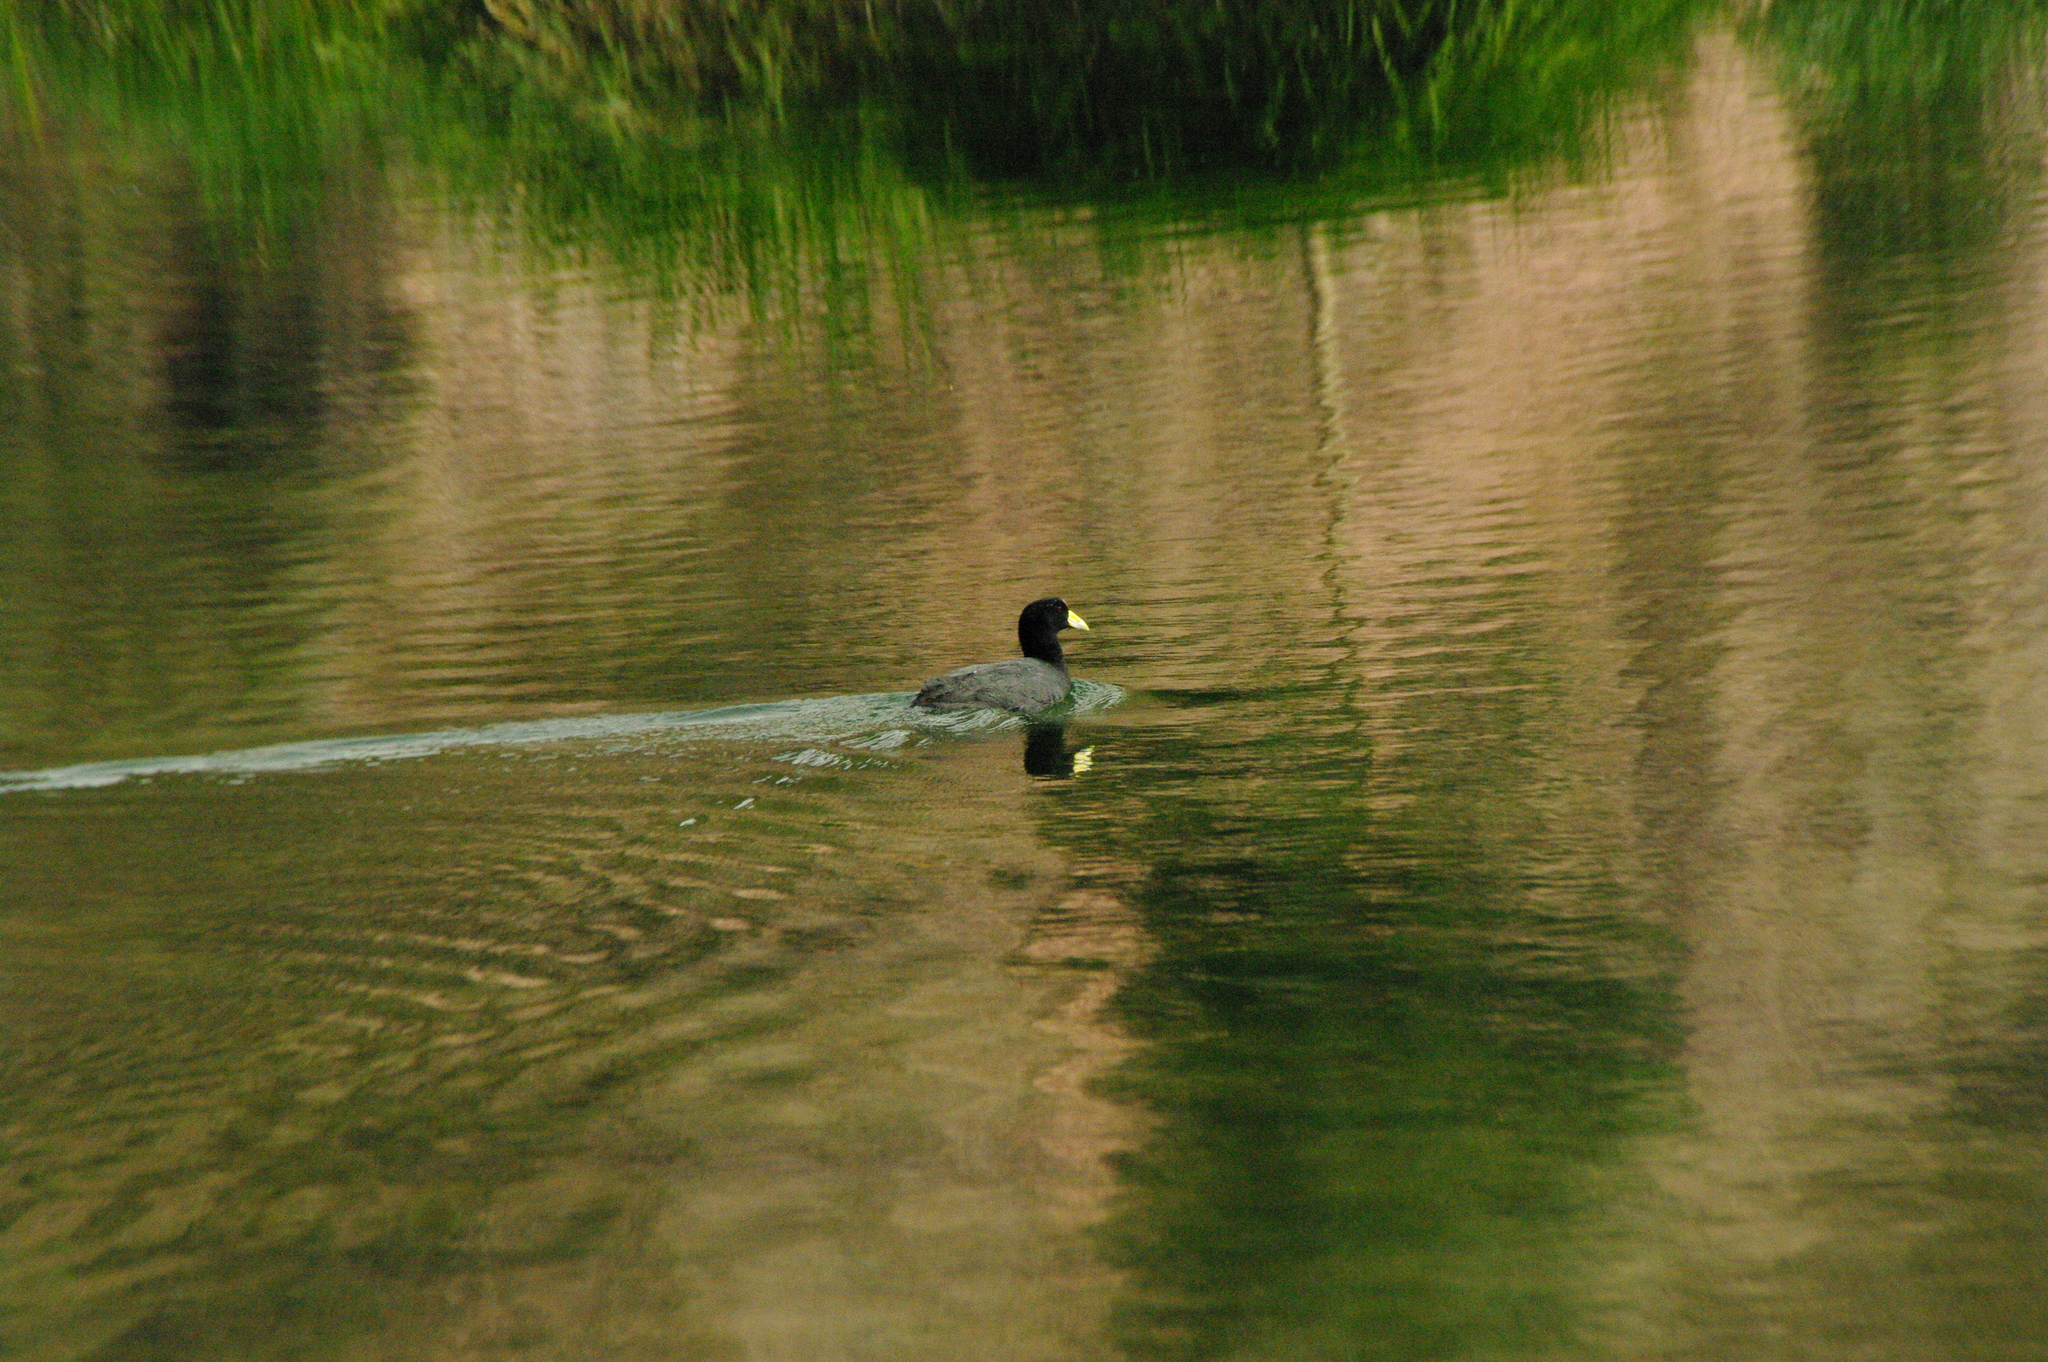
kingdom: Animalia
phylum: Chordata
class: Aves
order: Gruiformes
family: Rallidae
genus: Fulica
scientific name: Fulica ardesiaca
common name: Andean coot
